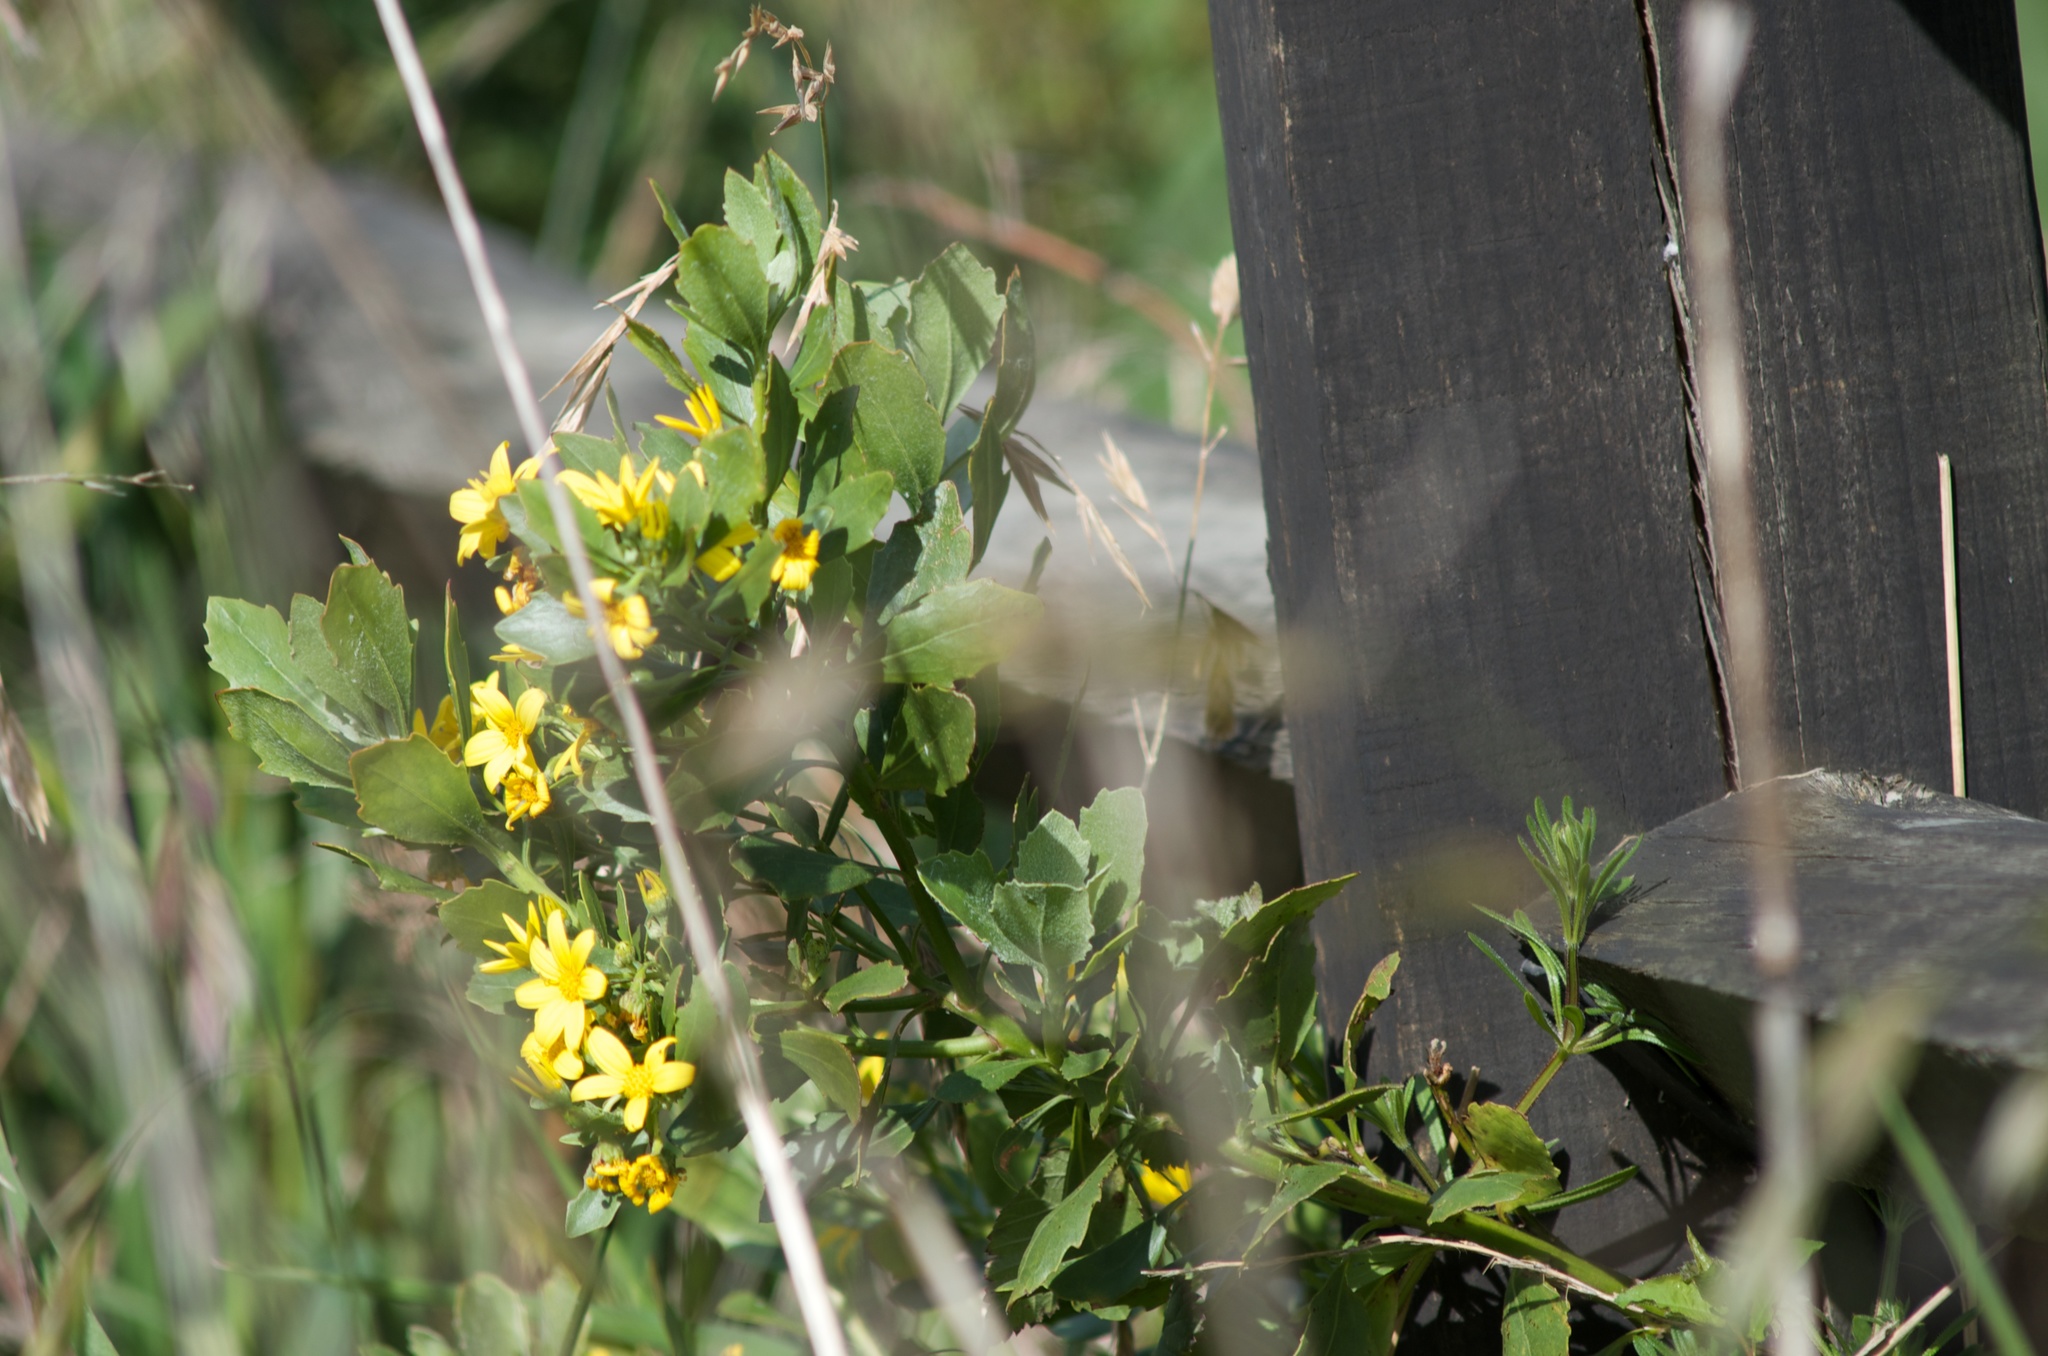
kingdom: Plantae
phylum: Tracheophyta
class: Magnoliopsida
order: Asterales
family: Asteraceae
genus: Osteospermum
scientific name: Osteospermum moniliferum
